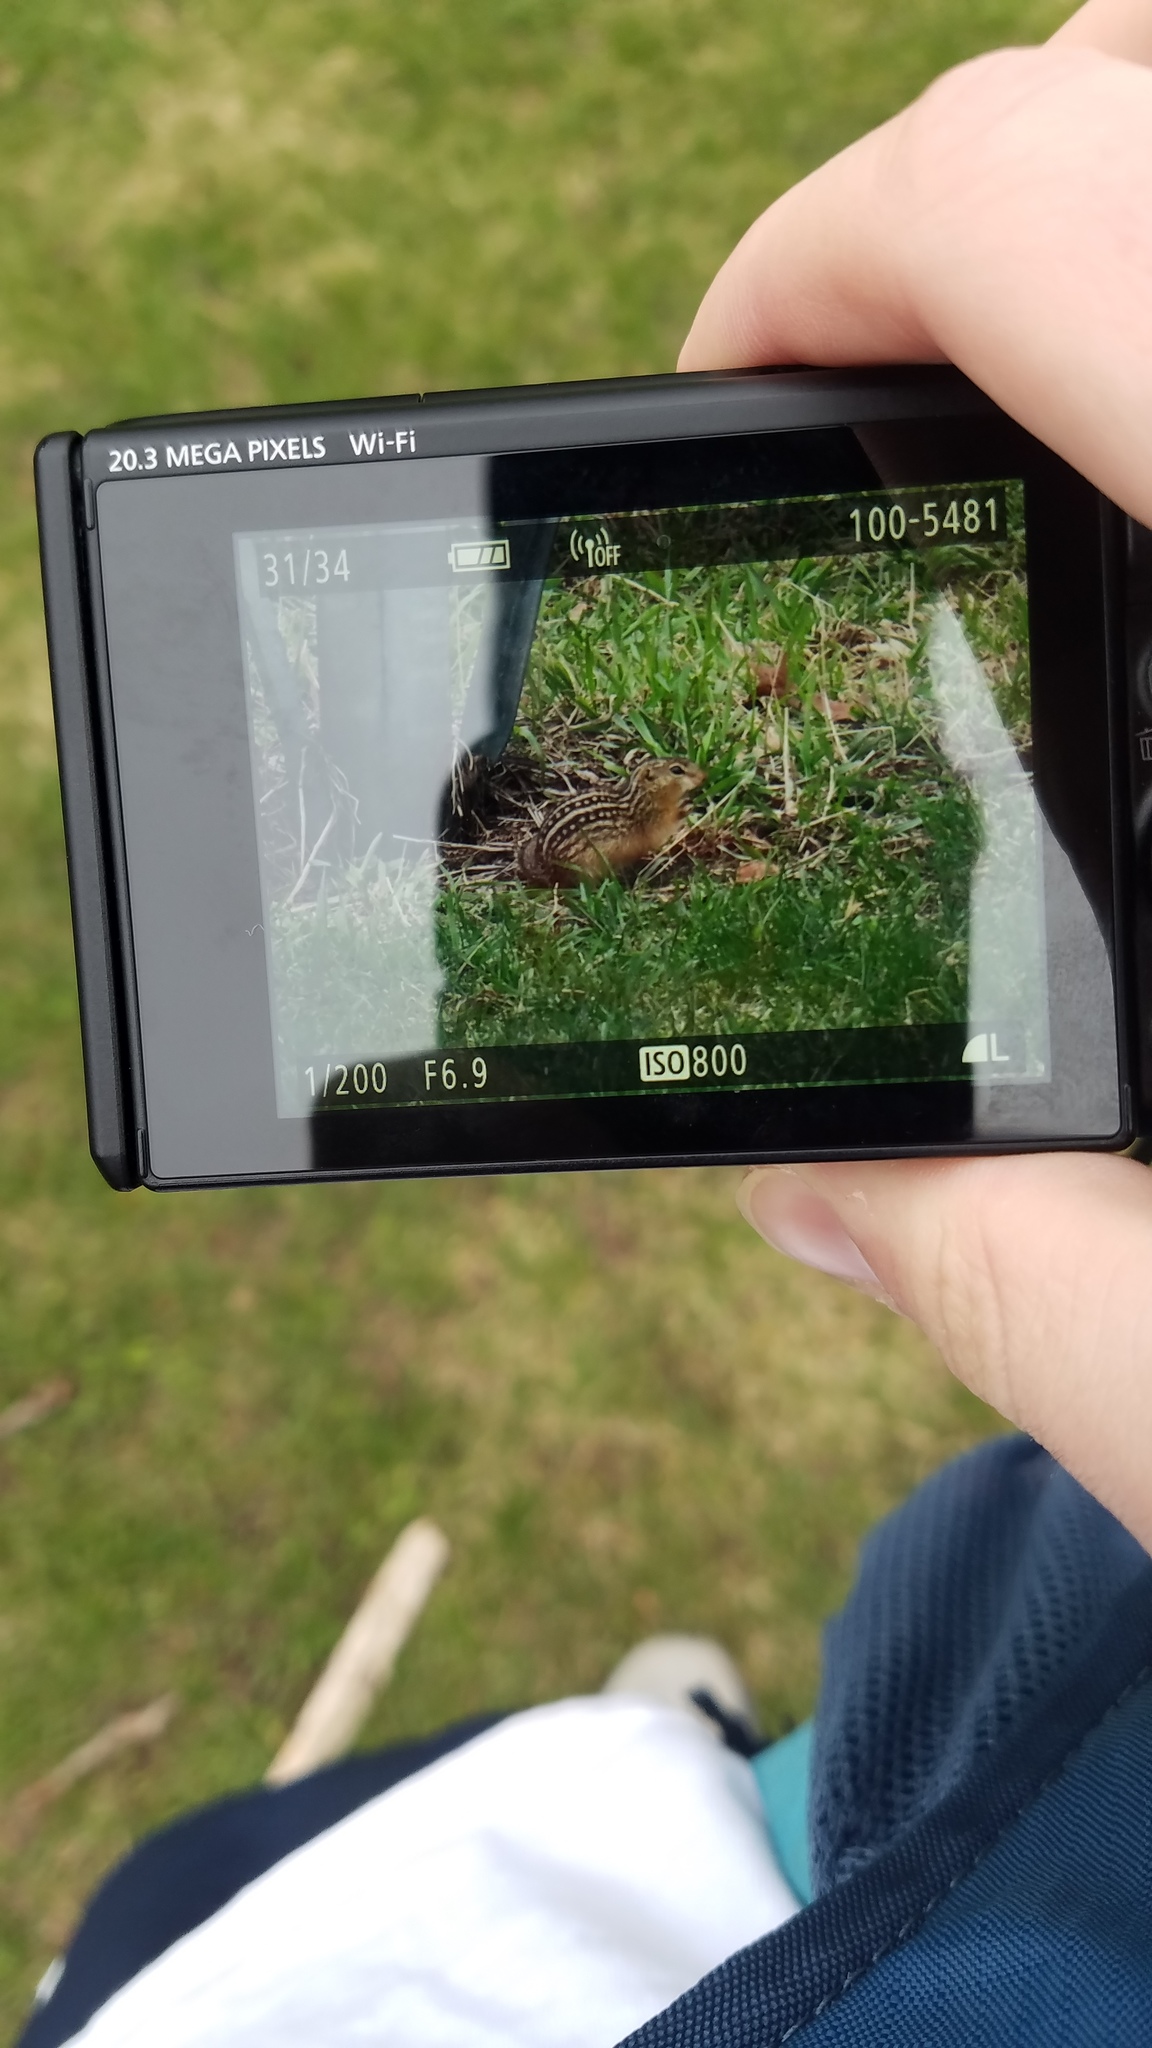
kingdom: Animalia
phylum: Chordata
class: Mammalia
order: Rodentia
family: Sciuridae
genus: Ictidomys
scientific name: Ictidomys tridecemlineatus
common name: Thirteen-lined ground squirrel
